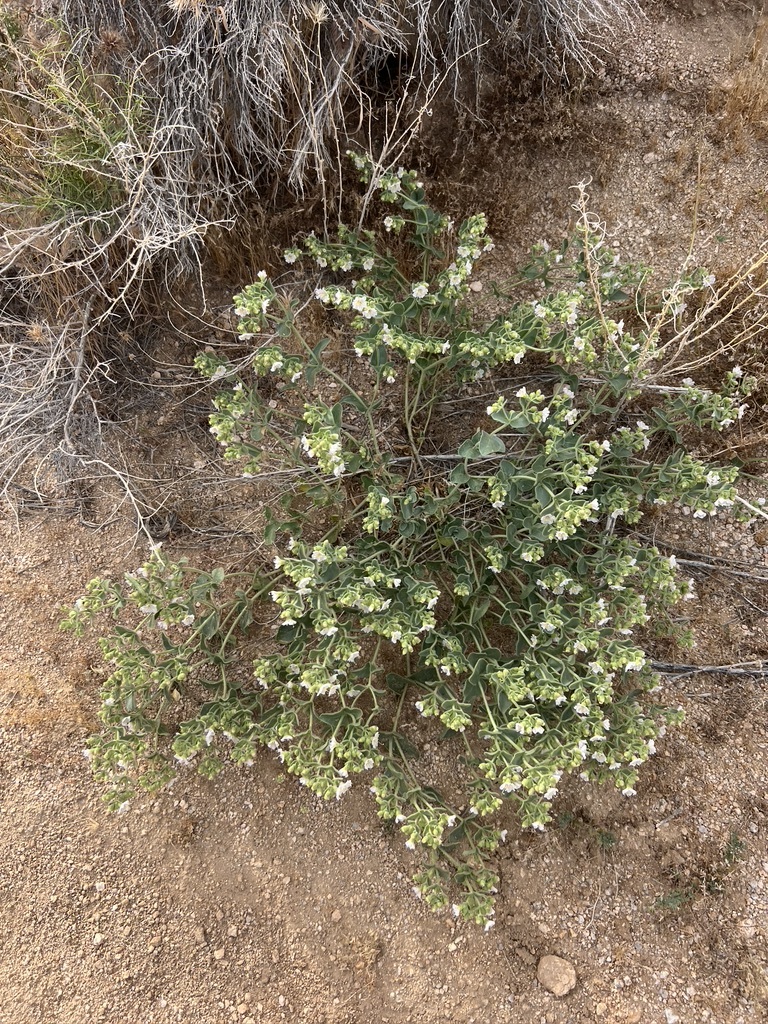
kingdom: Plantae
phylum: Tracheophyta
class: Magnoliopsida
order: Caryophyllales
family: Nyctaginaceae
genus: Mirabilis
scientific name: Mirabilis laevis
